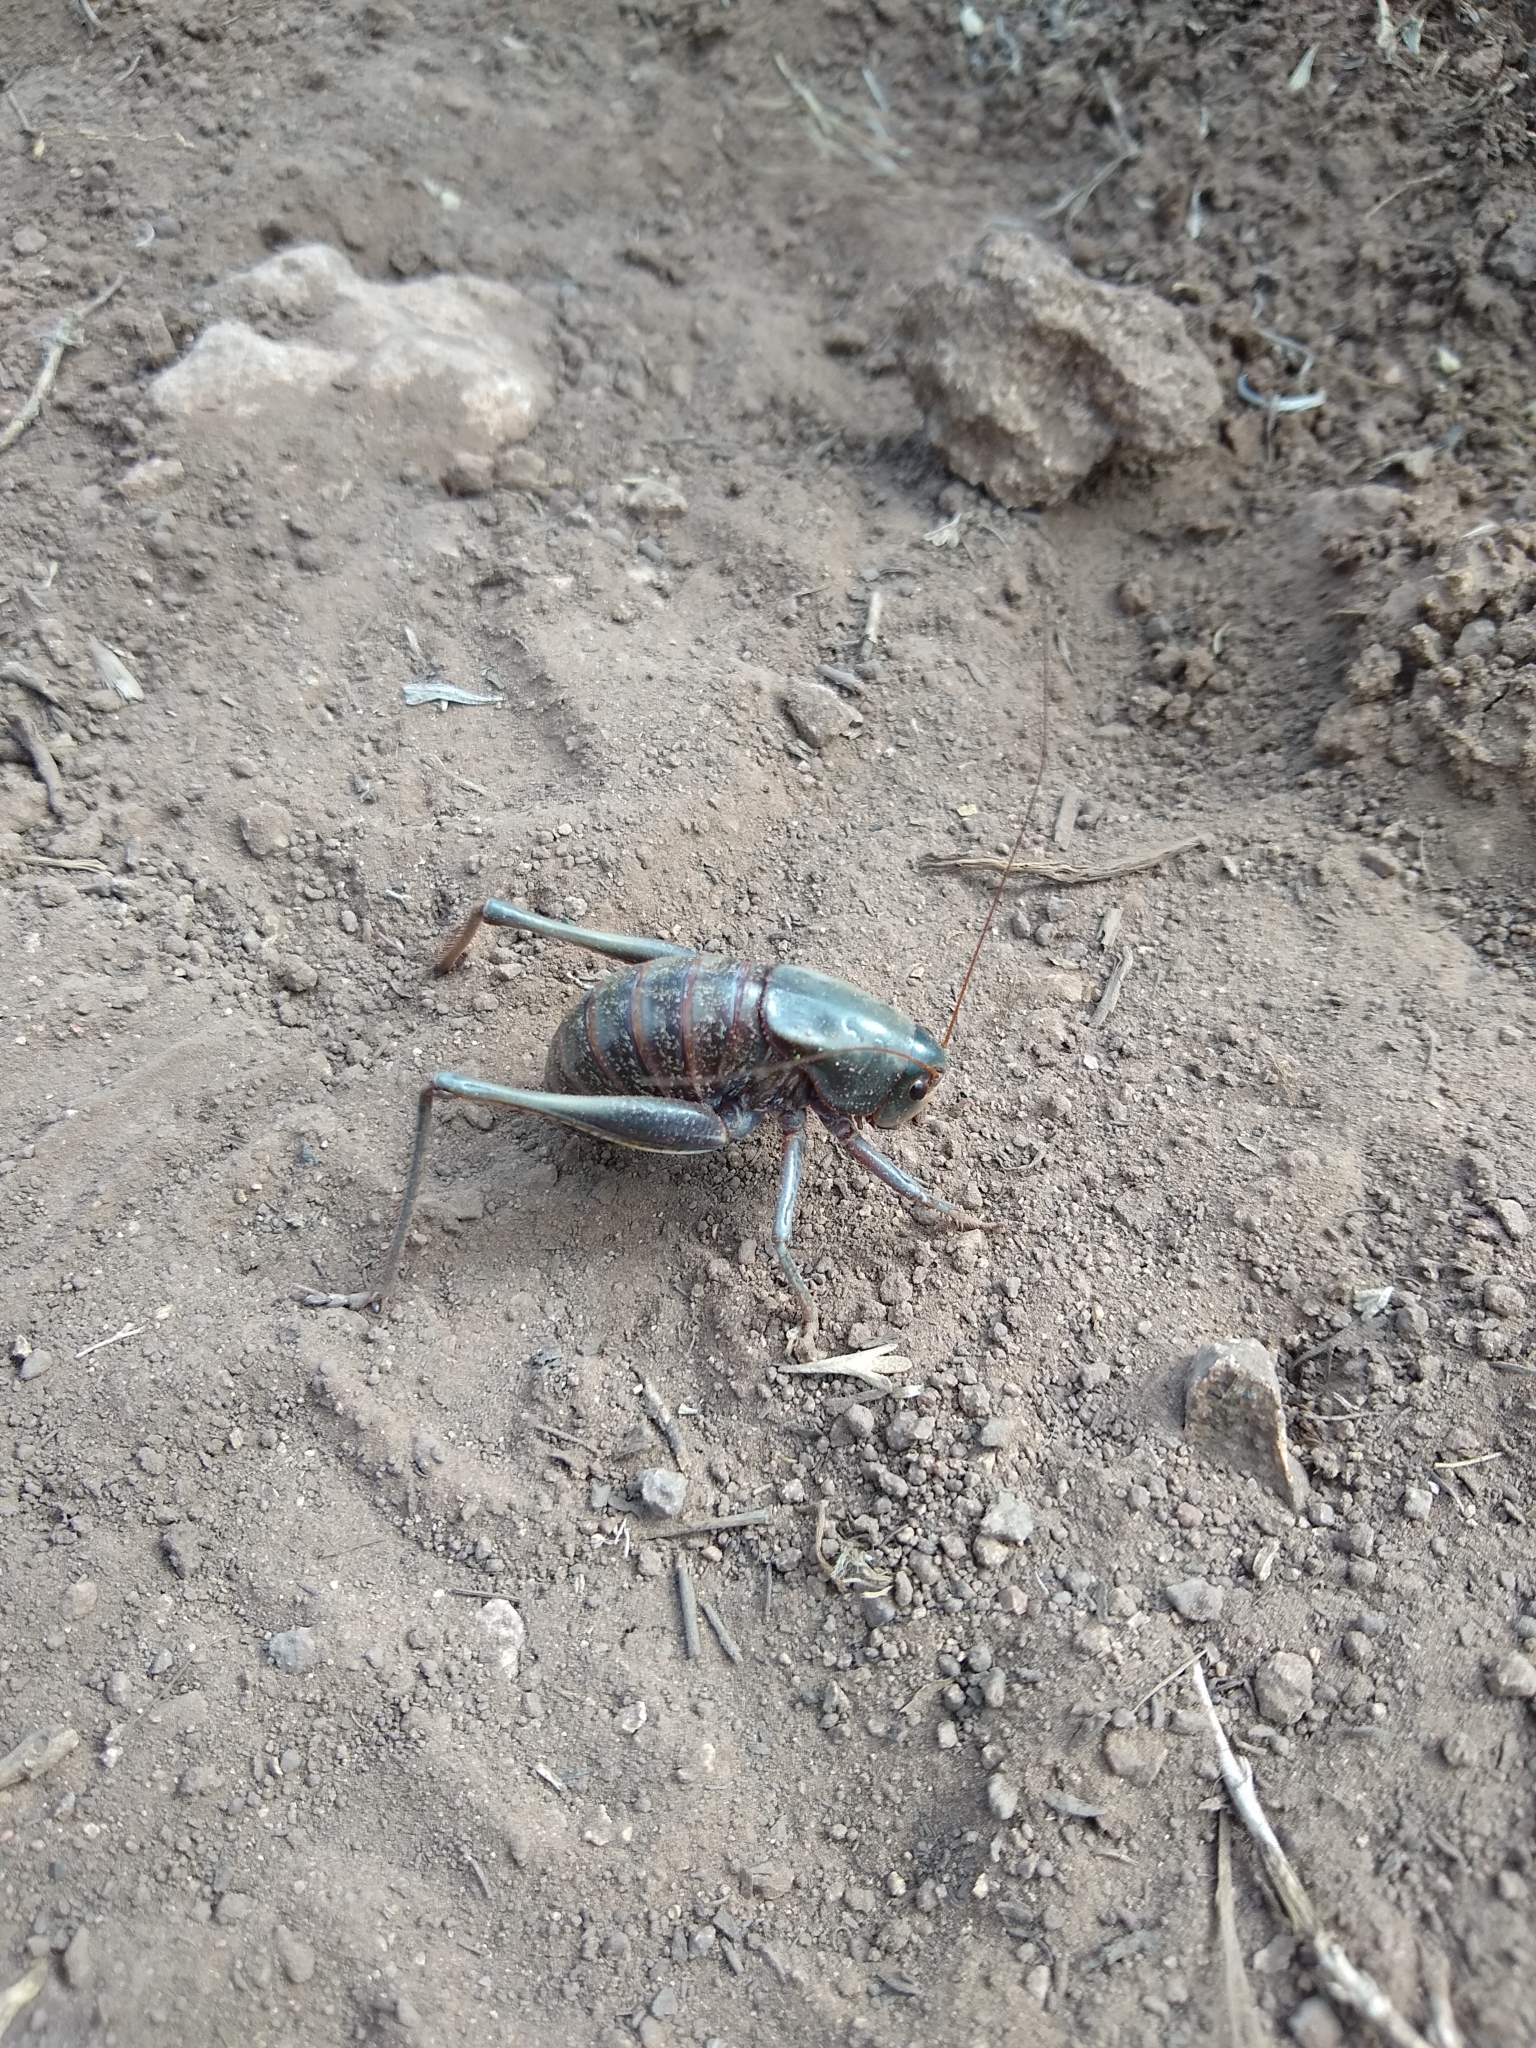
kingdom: Animalia
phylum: Arthropoda
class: Insecta
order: Orthoptera
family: Tettigoniidae
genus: Anabrus
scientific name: Anabrus simplex
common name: Mormon cricket
